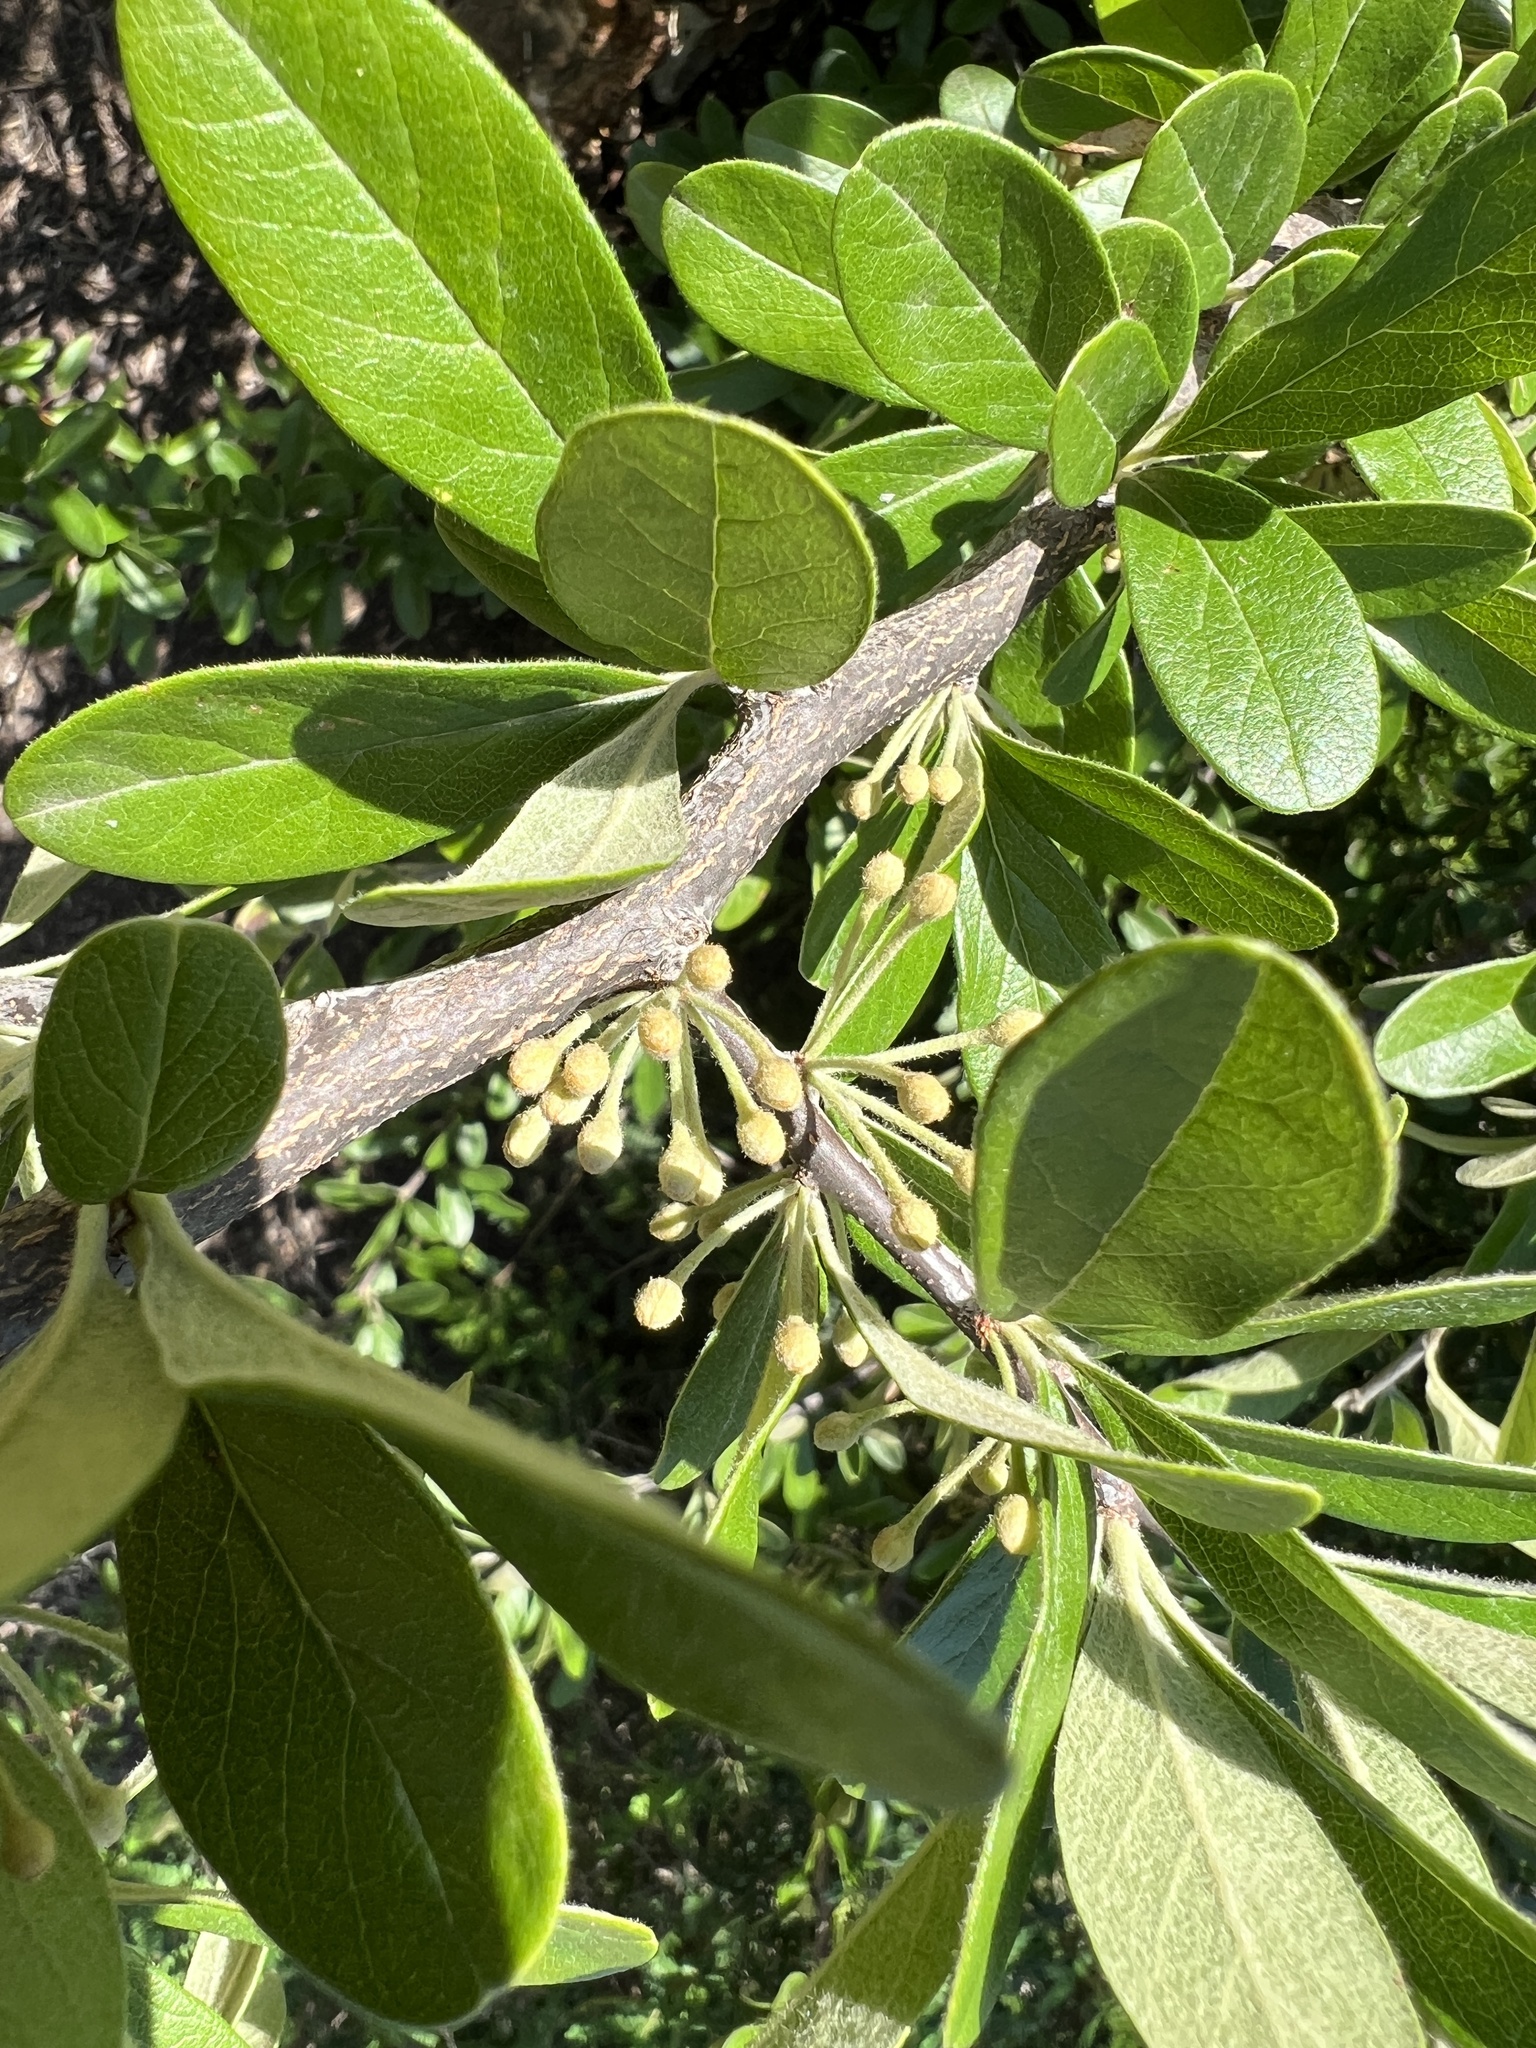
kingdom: Plantae
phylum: Tracheophyta
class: Magnoliopsida
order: Ericales
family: Sapotaceae
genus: Sideroxylon
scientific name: Sideroxylon lanuginosum
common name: Chittamwood
